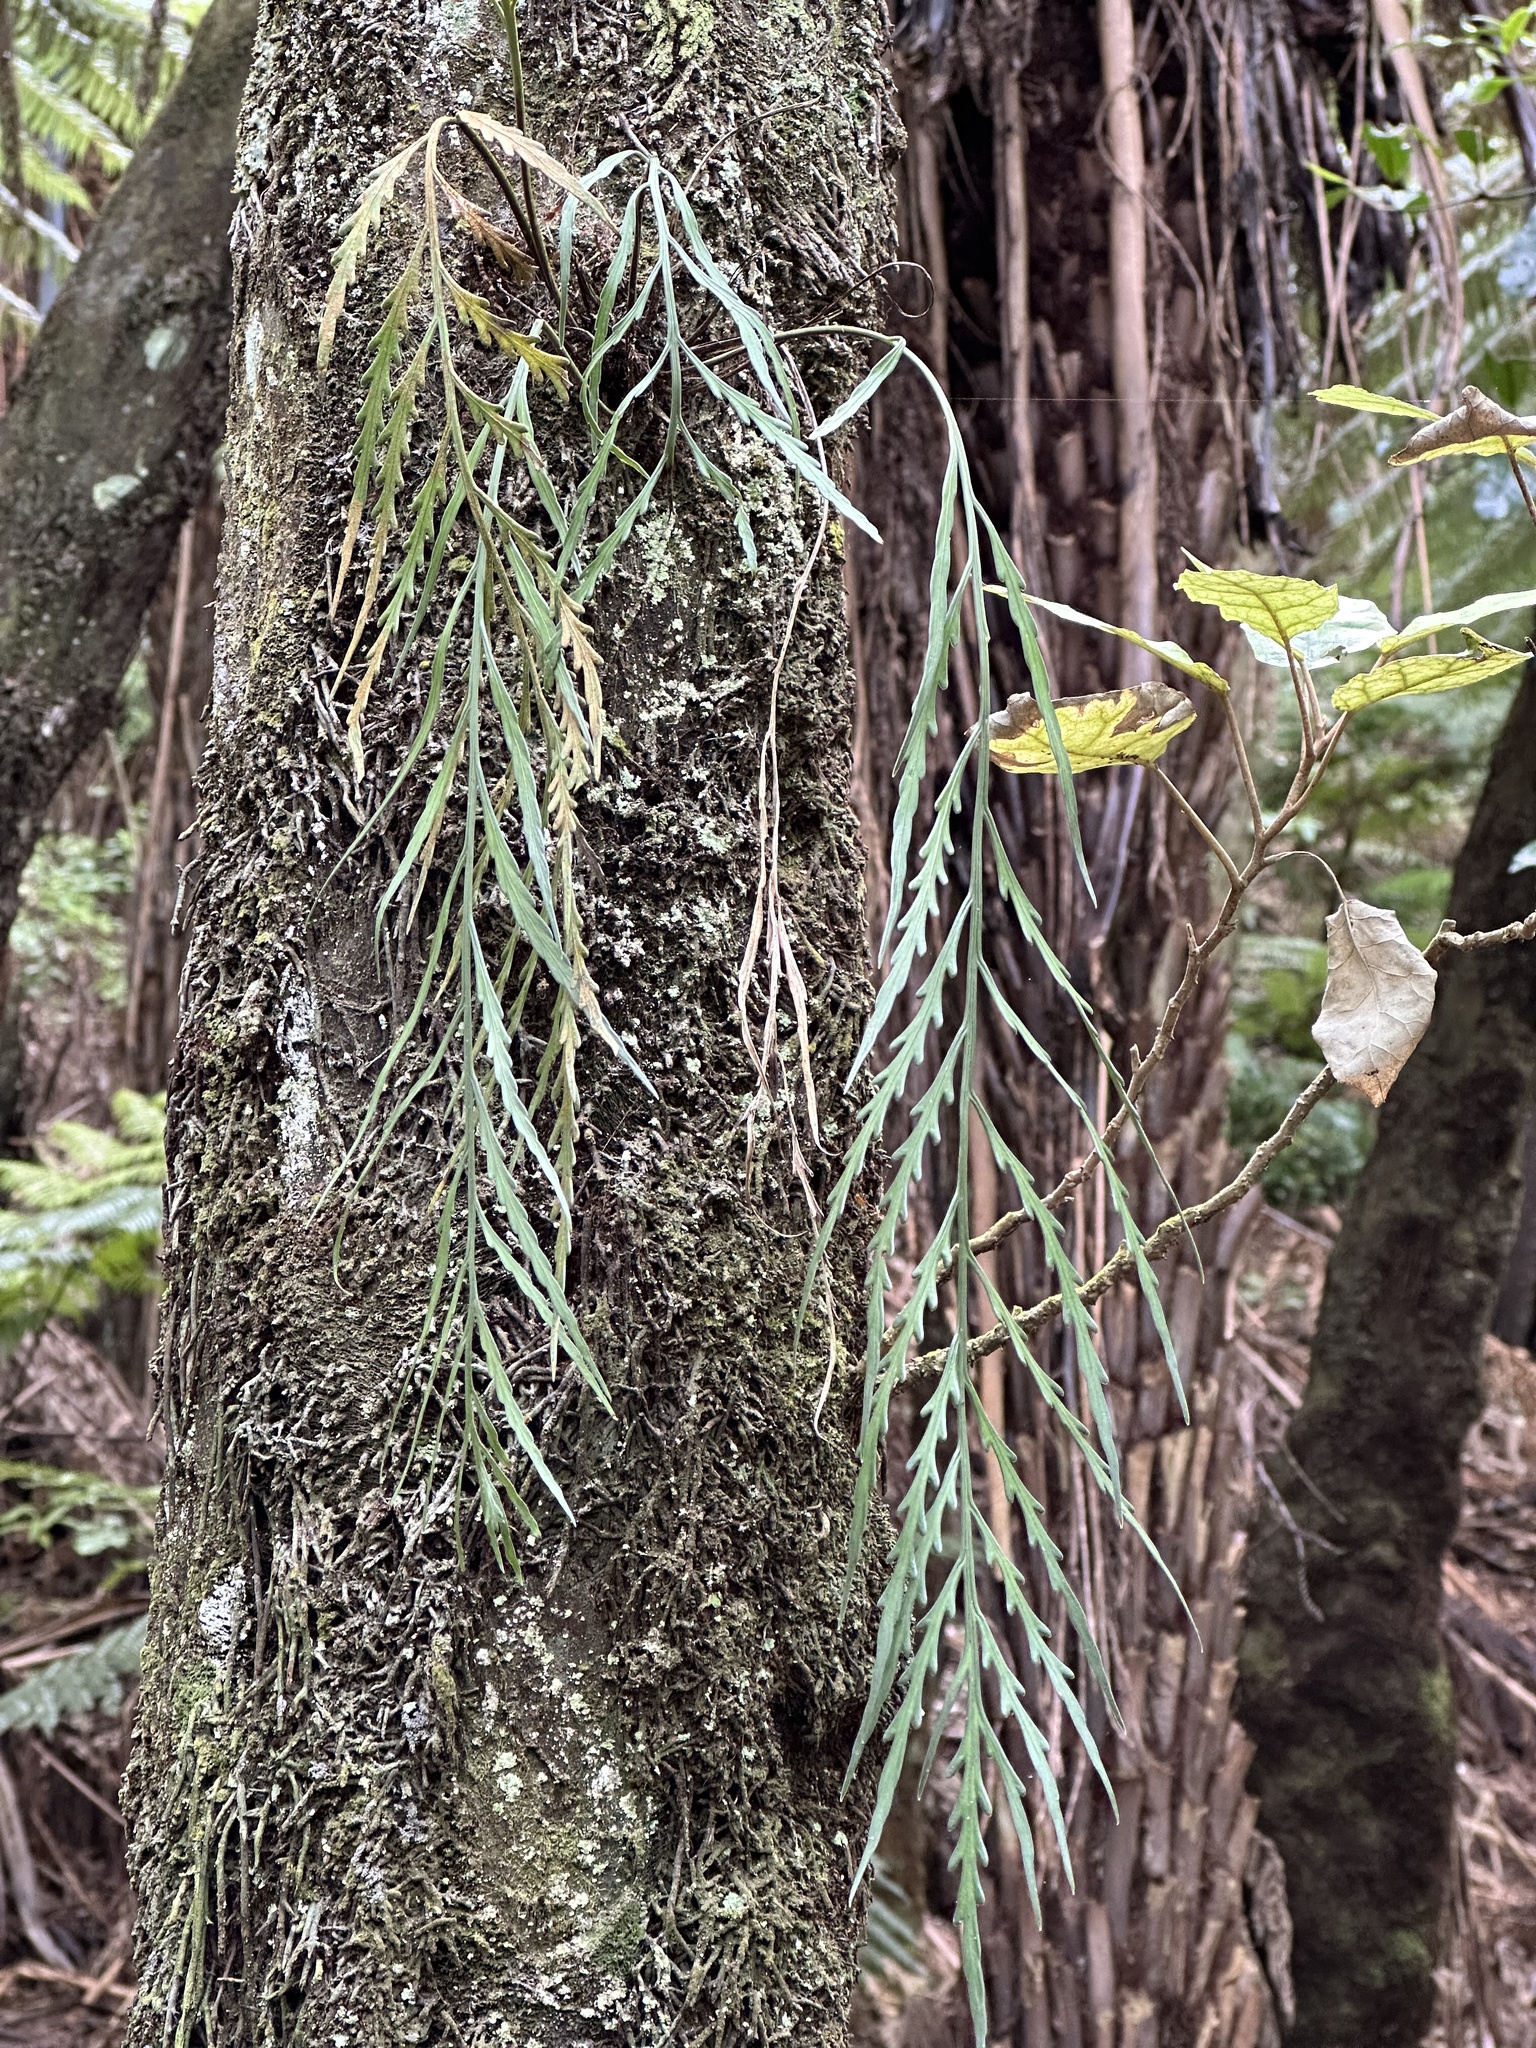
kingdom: Plantae
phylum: Tracheophyta
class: Polypodiopsida
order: Polypodiales
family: Aspleniaceae
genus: Asplenium
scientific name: Asplenium flaccidum
